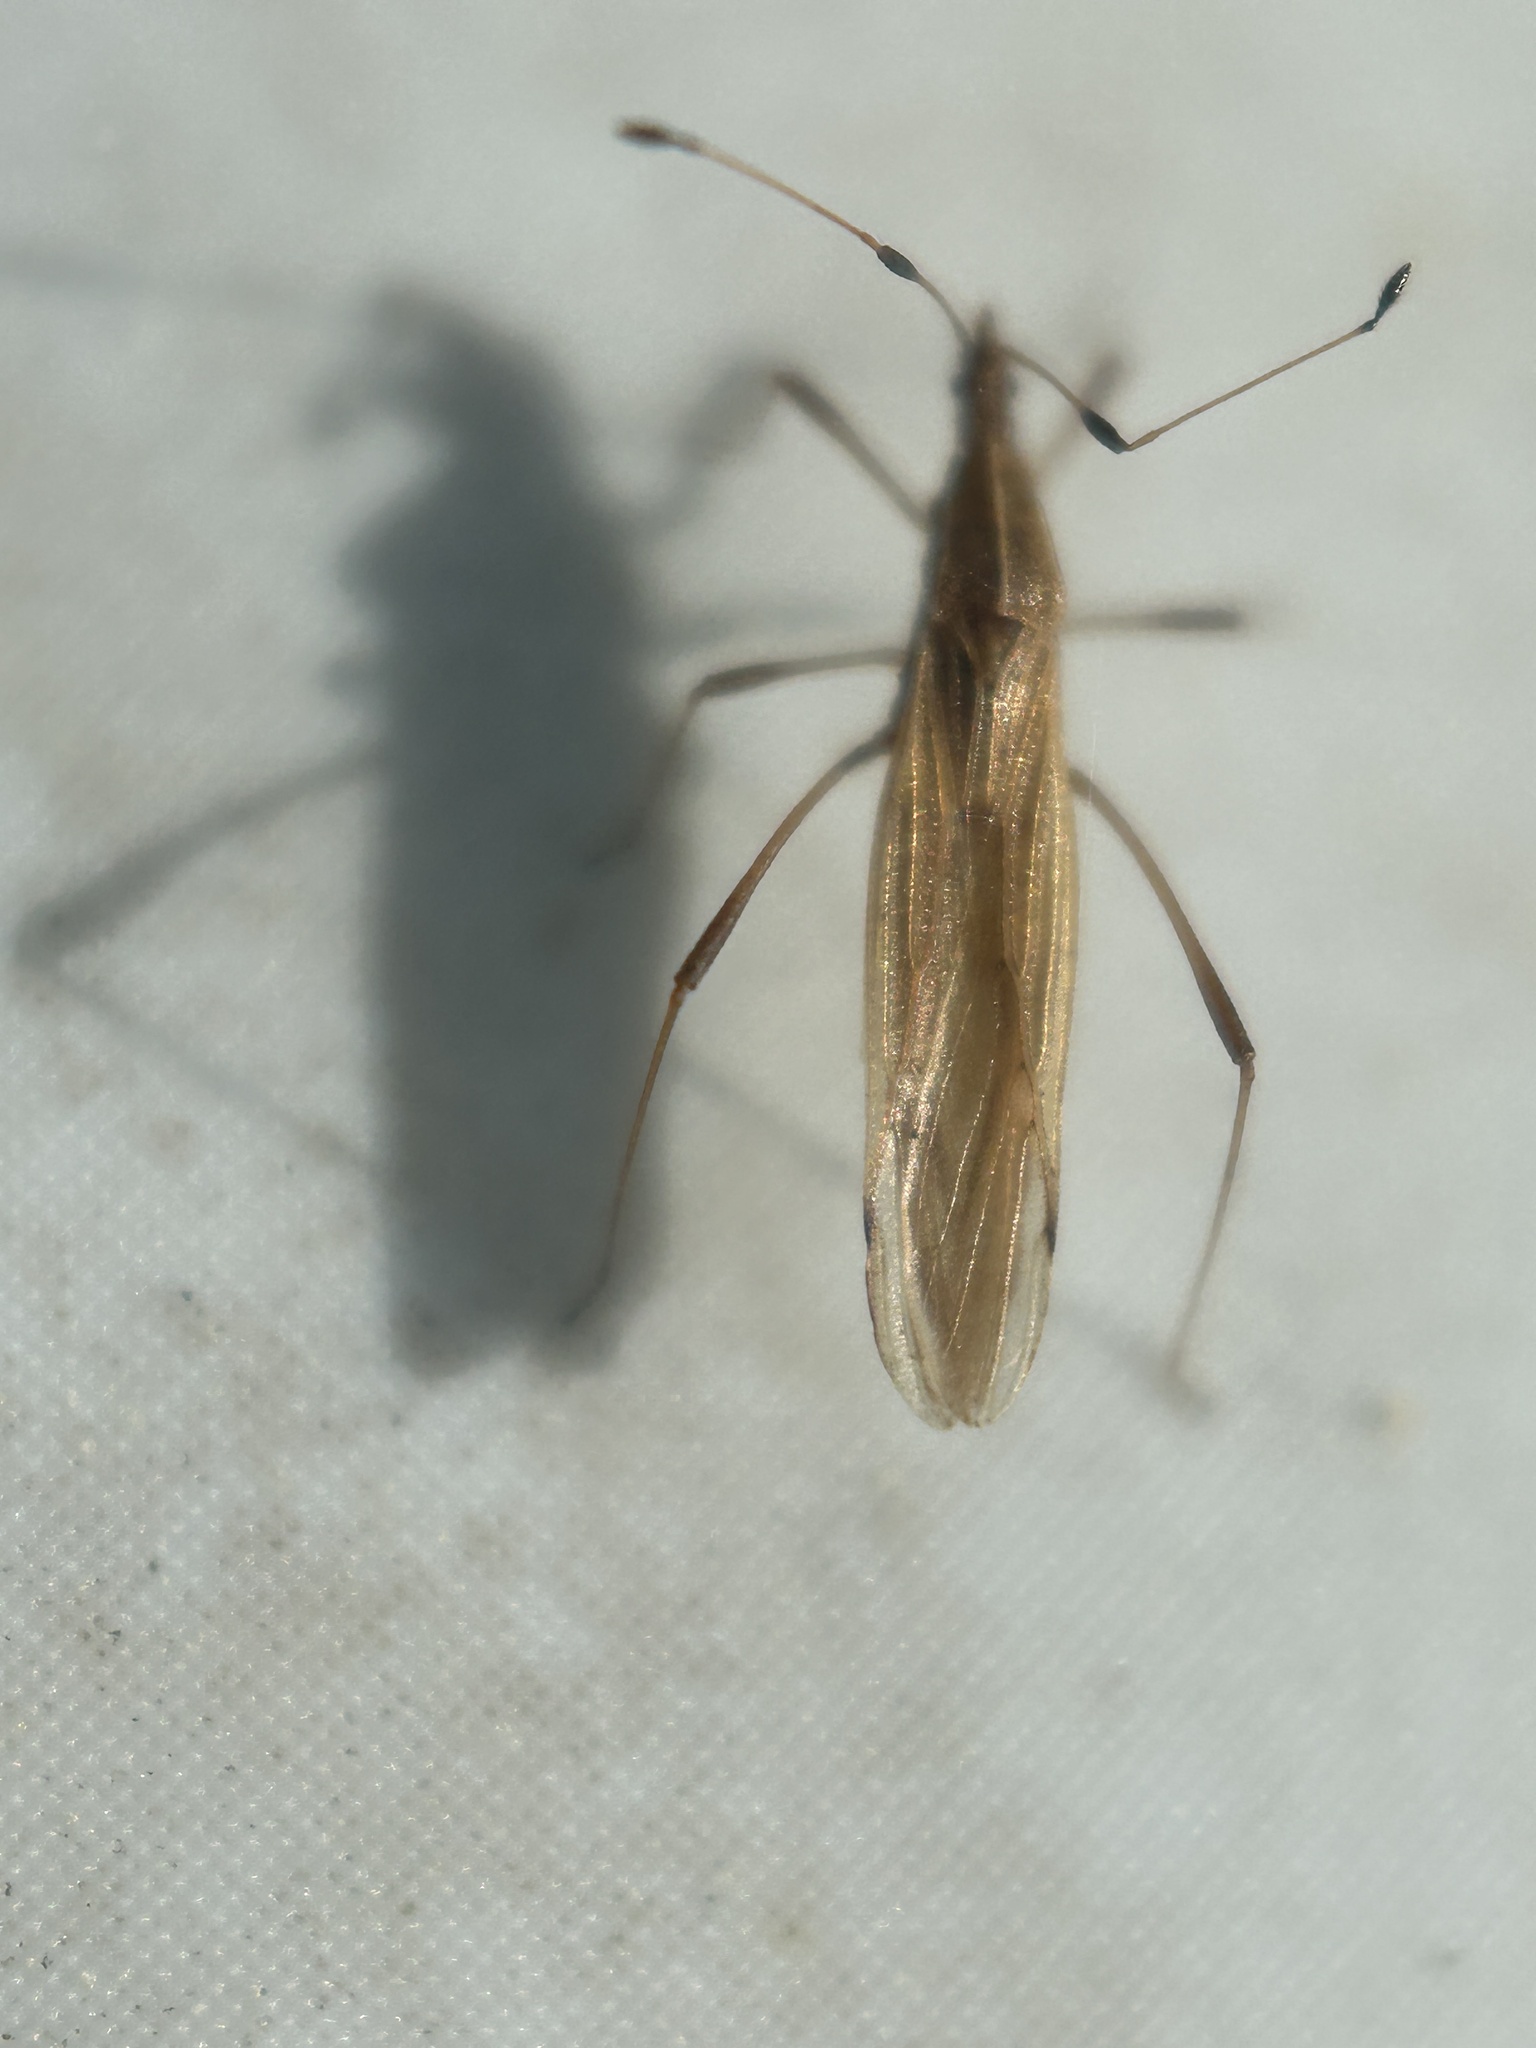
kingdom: Animalia
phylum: Arthropoda
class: Insecta
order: Hemiptera
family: Berytidae
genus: Berytinus
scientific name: Berytinus minor
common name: Stilt bug
